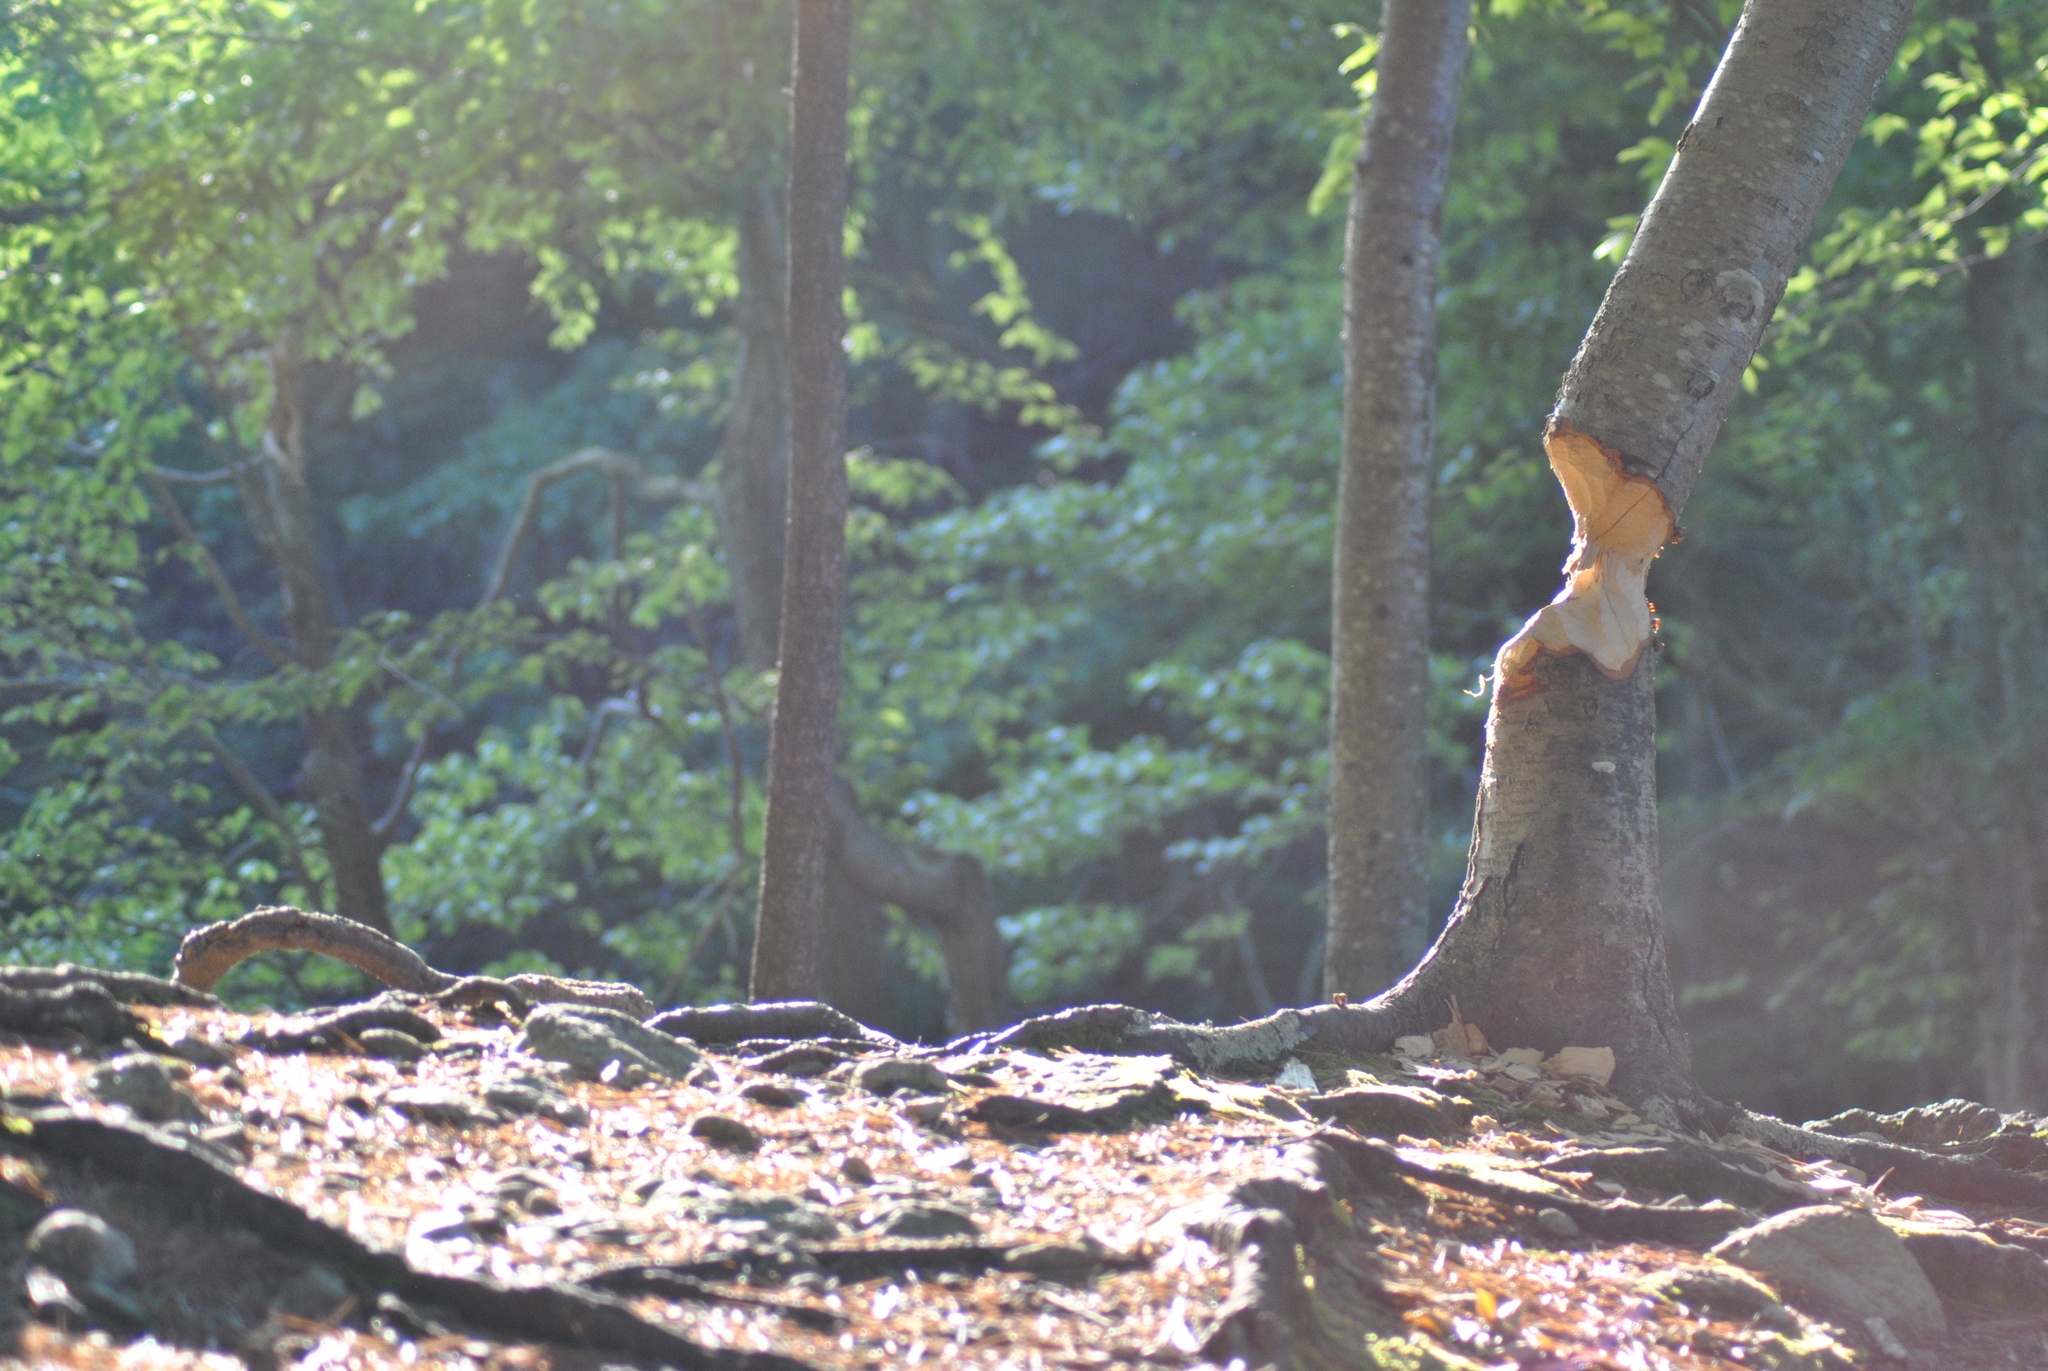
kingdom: Animalia
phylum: Chordata
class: Mammalia
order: Rodentia
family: Castoridae
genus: Castor
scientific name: Castor canadensis
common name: American beaver
